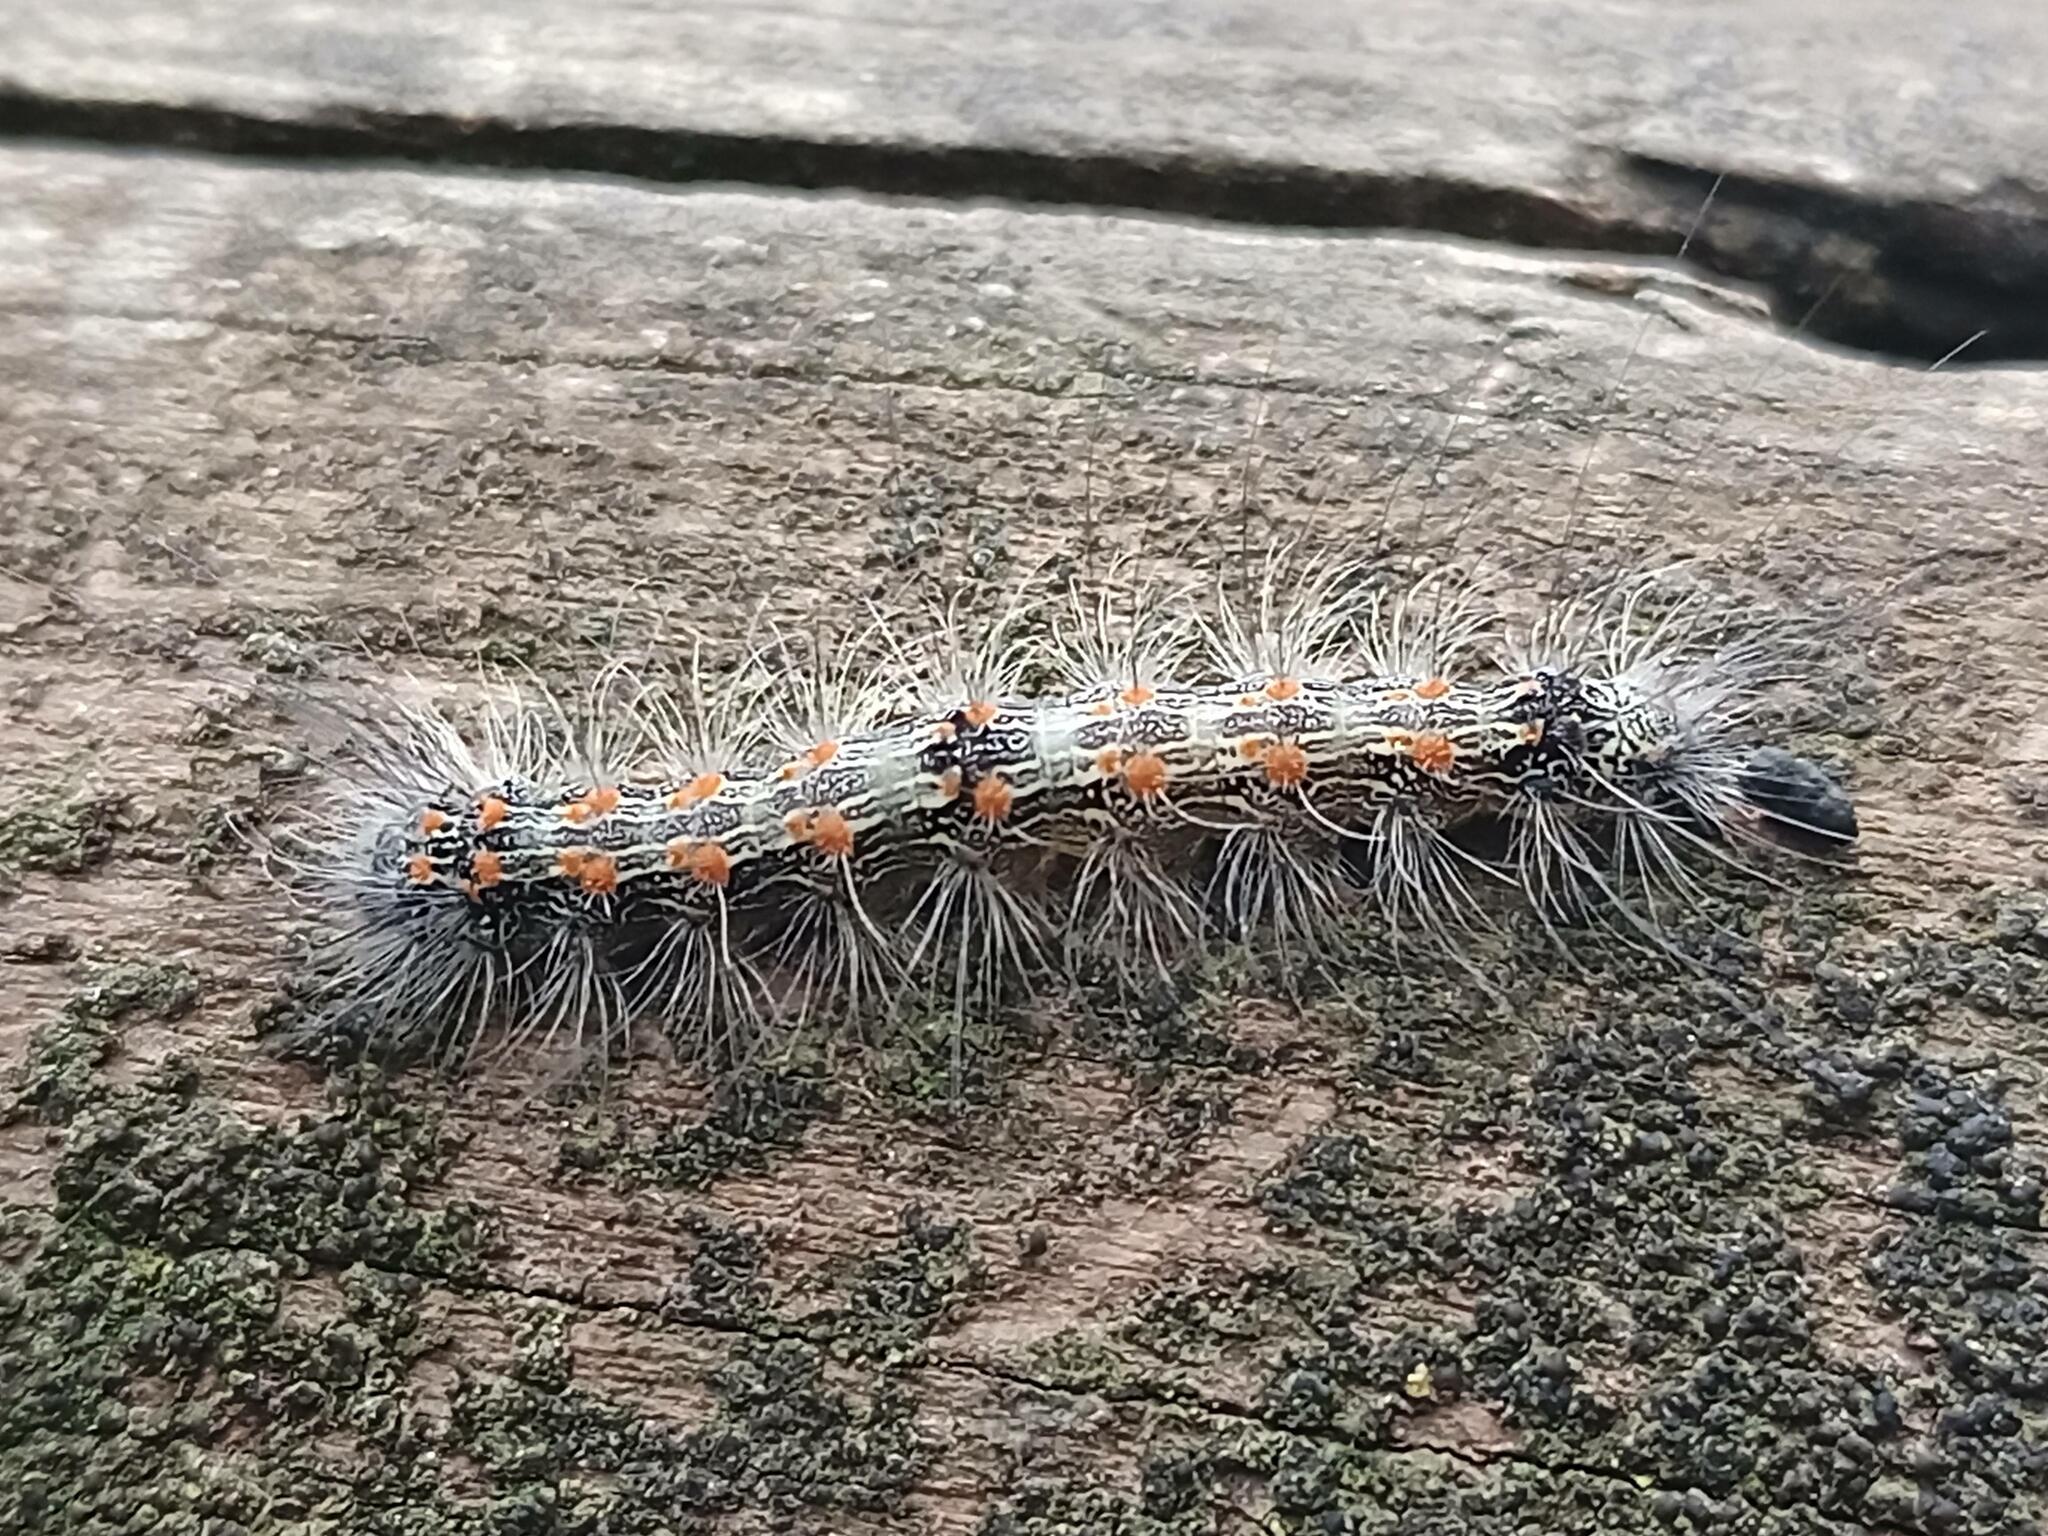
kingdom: Animalia
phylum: Arthropoda
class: Insecta
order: Lepidoptera
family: Erebidae
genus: Lithosia
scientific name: Lithosia quadra
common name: Four-spotted footman
